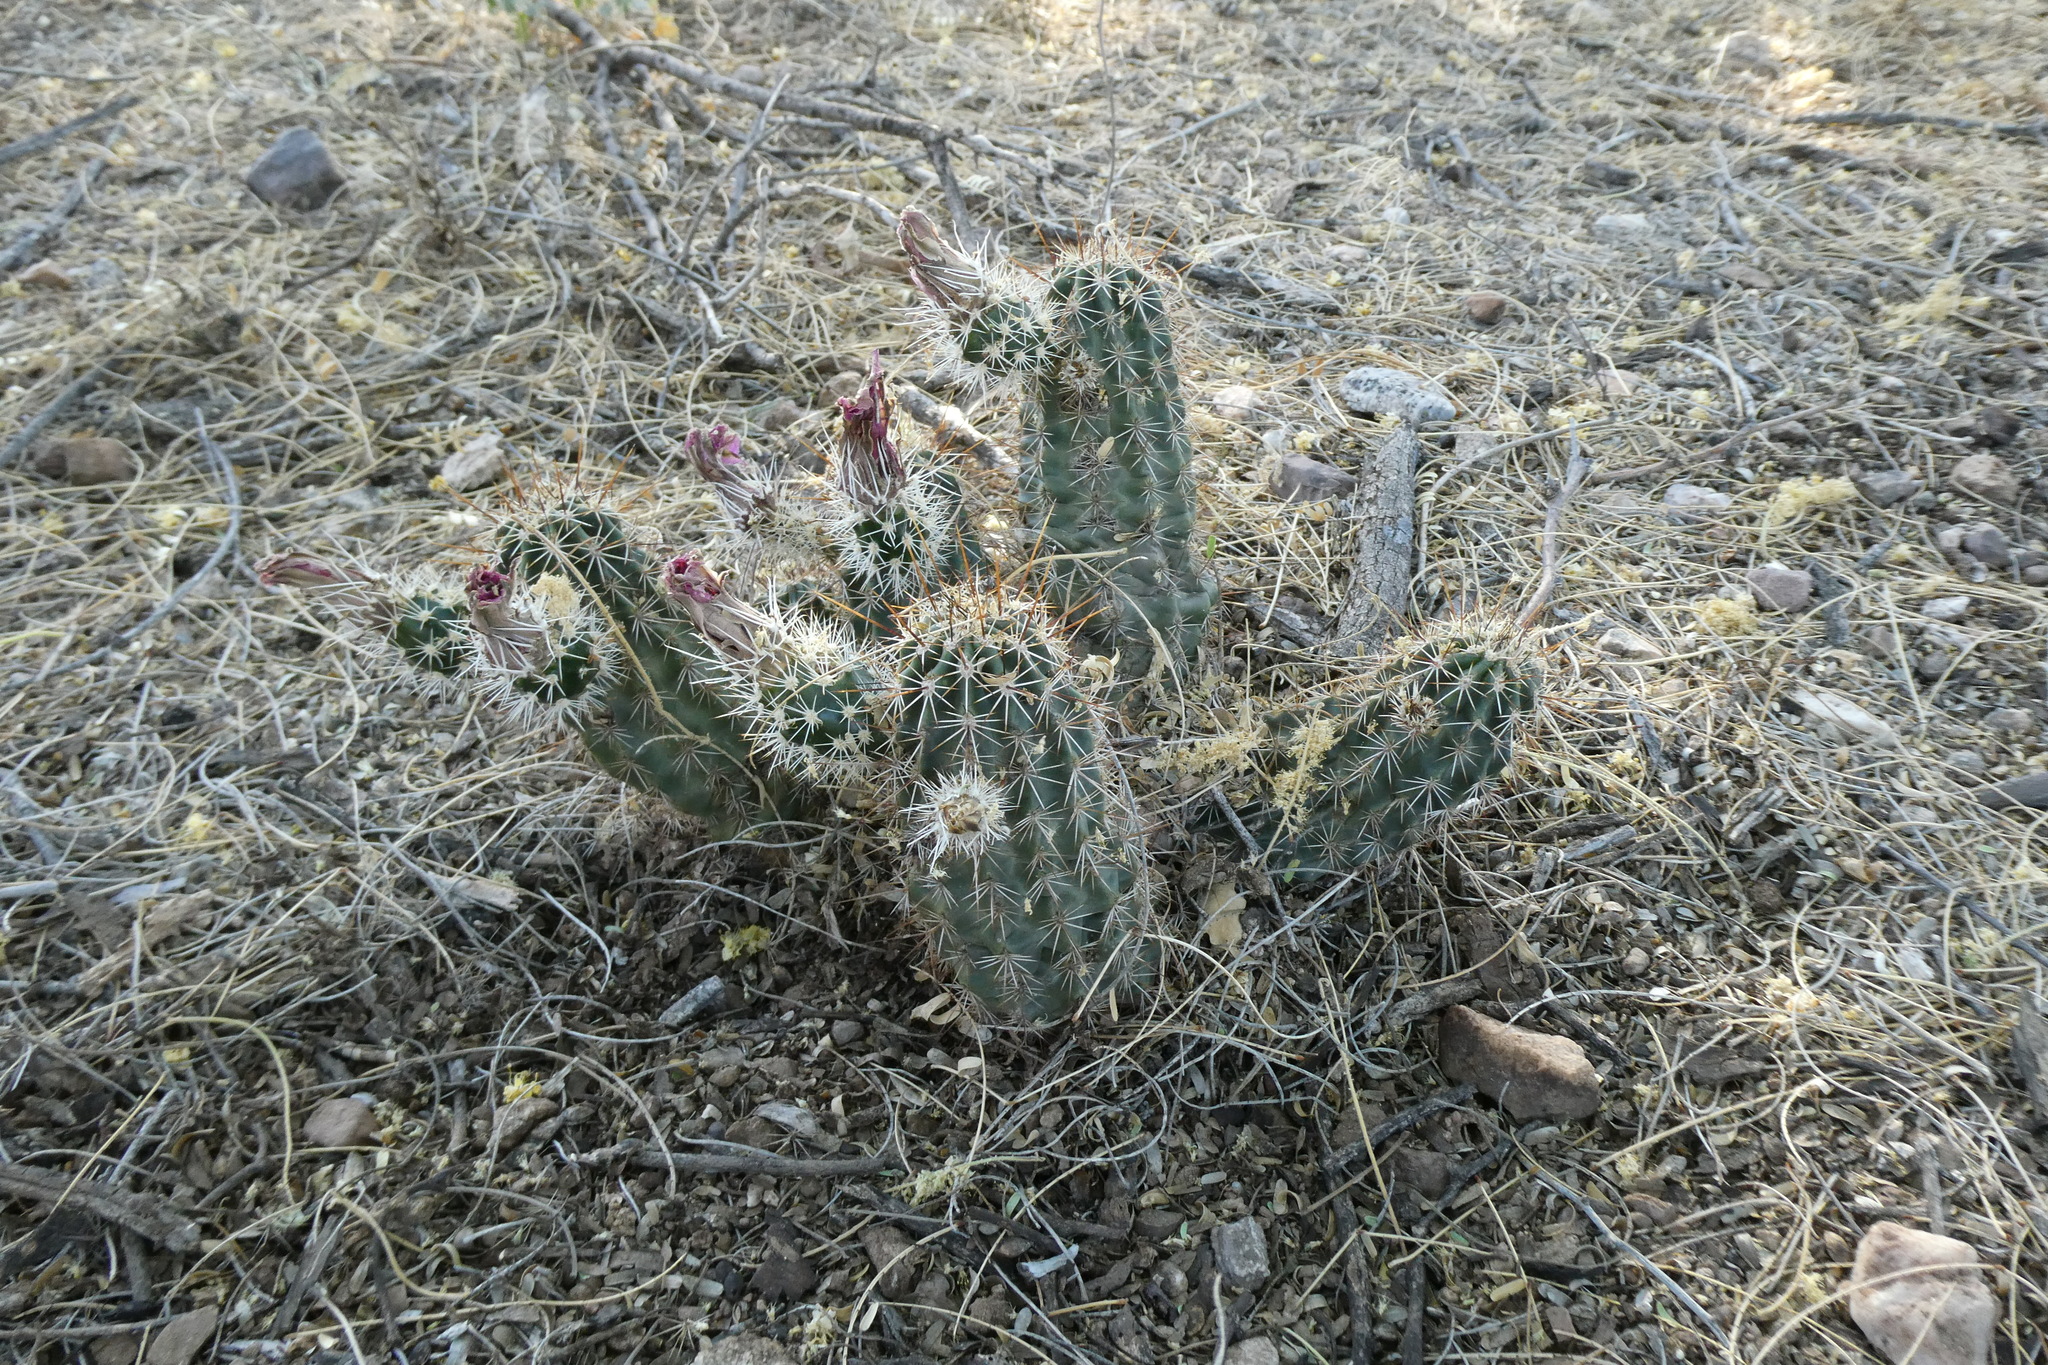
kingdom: Plantae
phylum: Tracheophyta
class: Magnoliopsida
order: Caryophyllales
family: Cactaceae
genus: Echinocereus
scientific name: Echinocereus fasciculatus
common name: Bundle hedgehog
